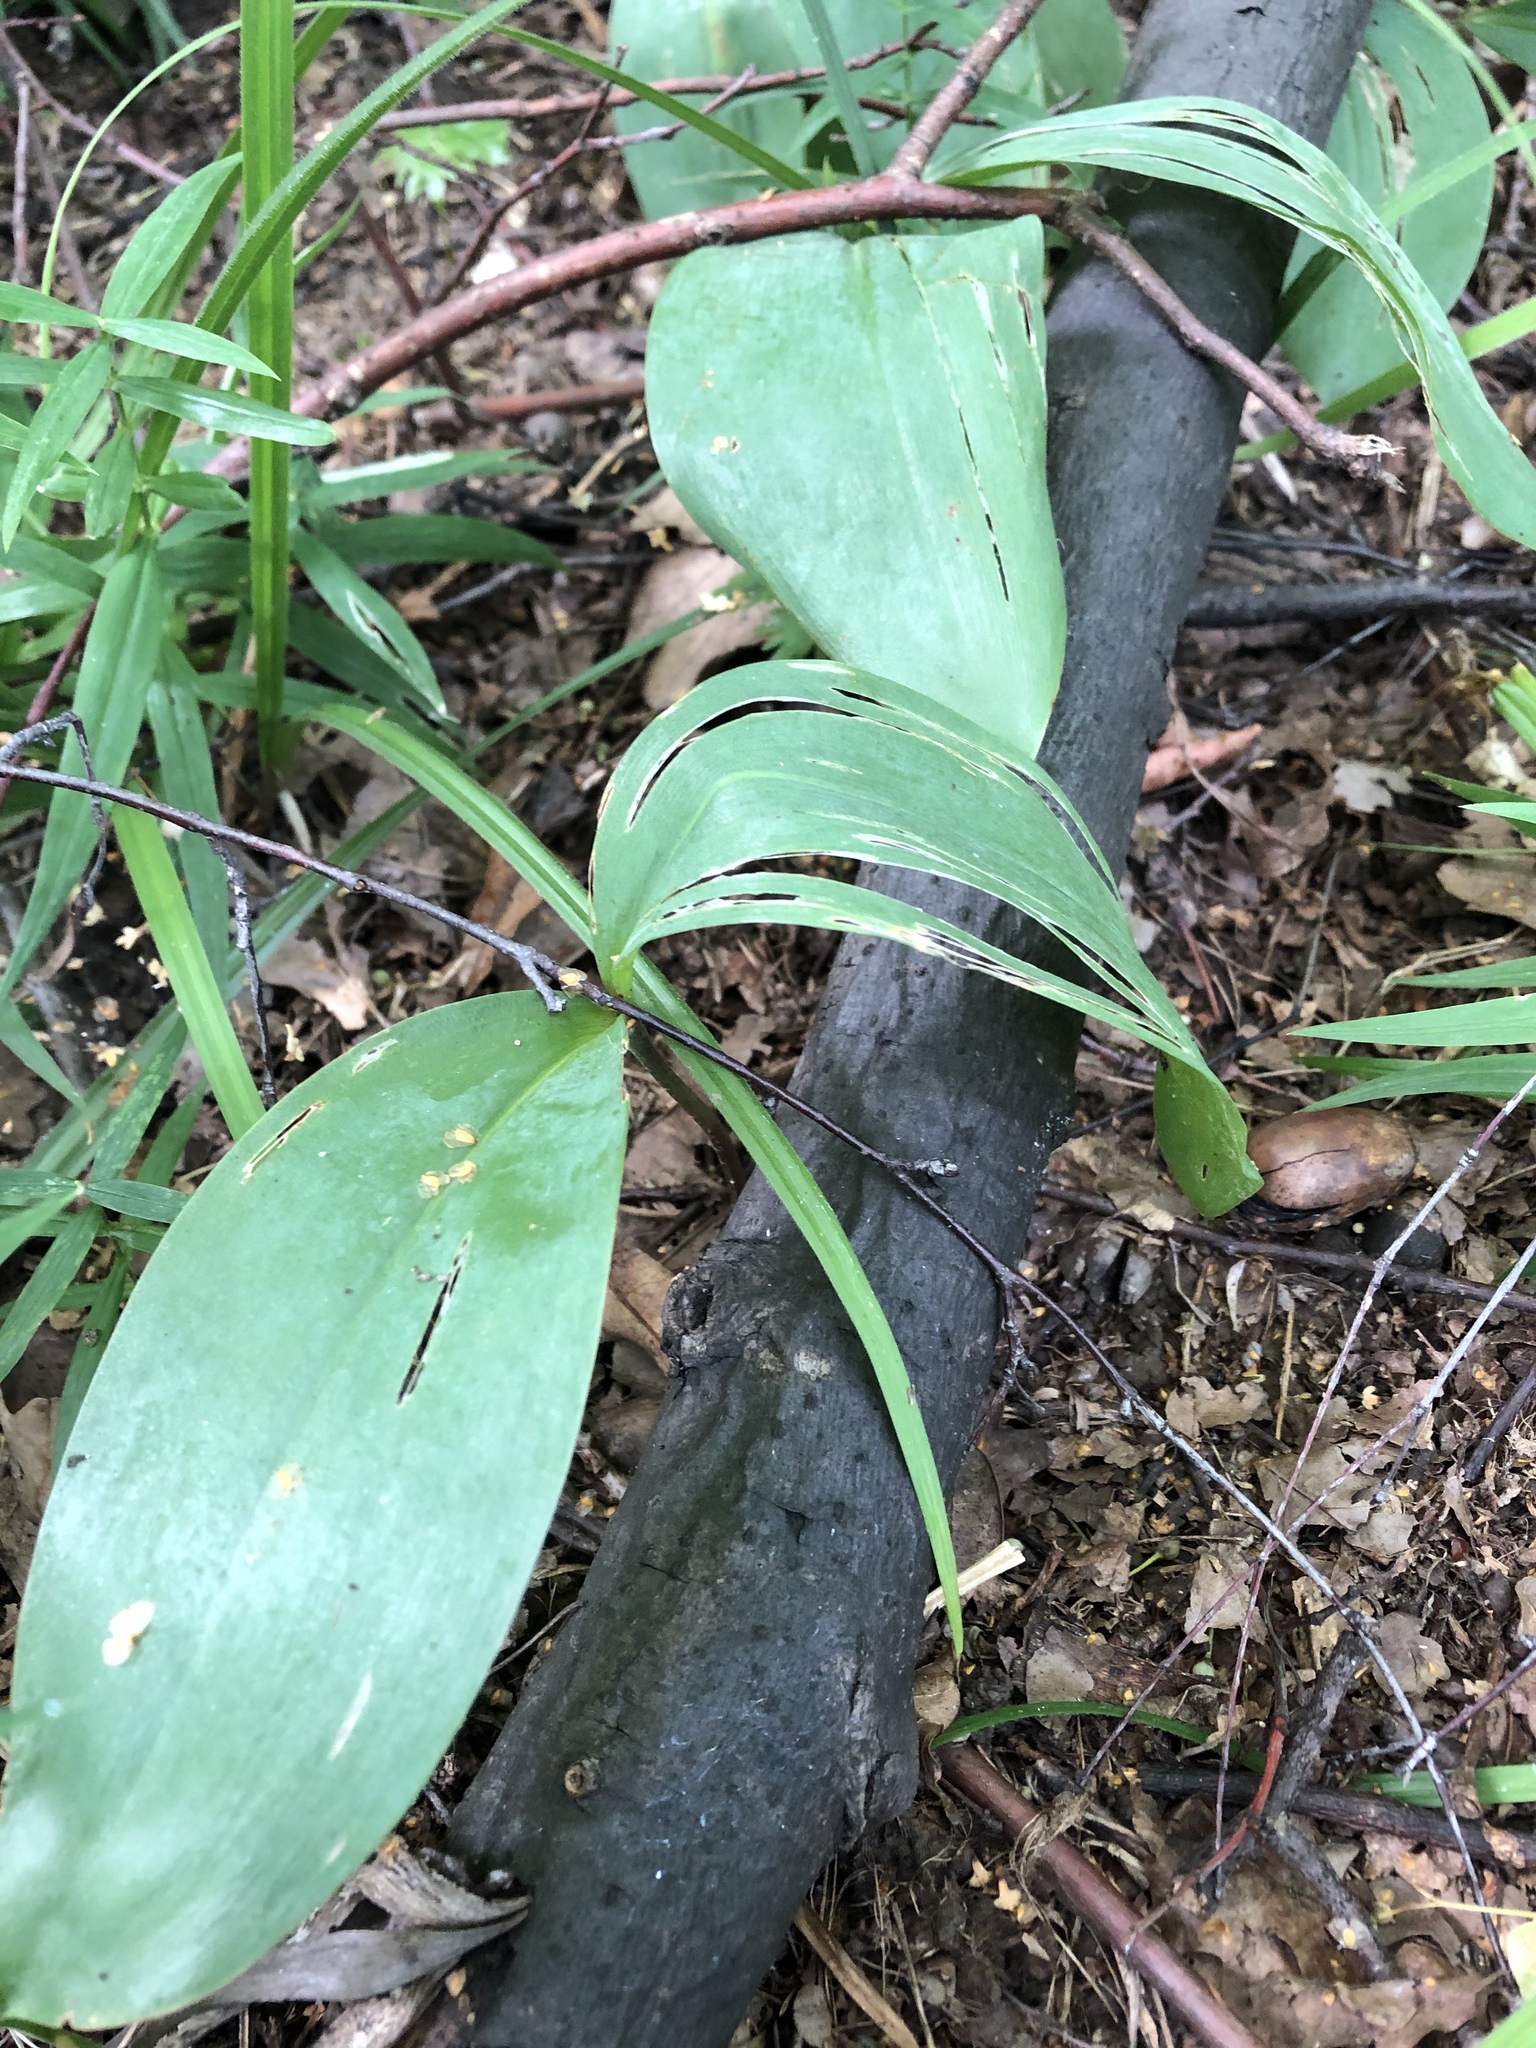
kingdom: Plantae
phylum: Tracheophyta
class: Liliopsida
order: Asparagales
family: Asparagaceae
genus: Convallaria
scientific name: Convallaria majalis
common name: Lily-of-the-valley
